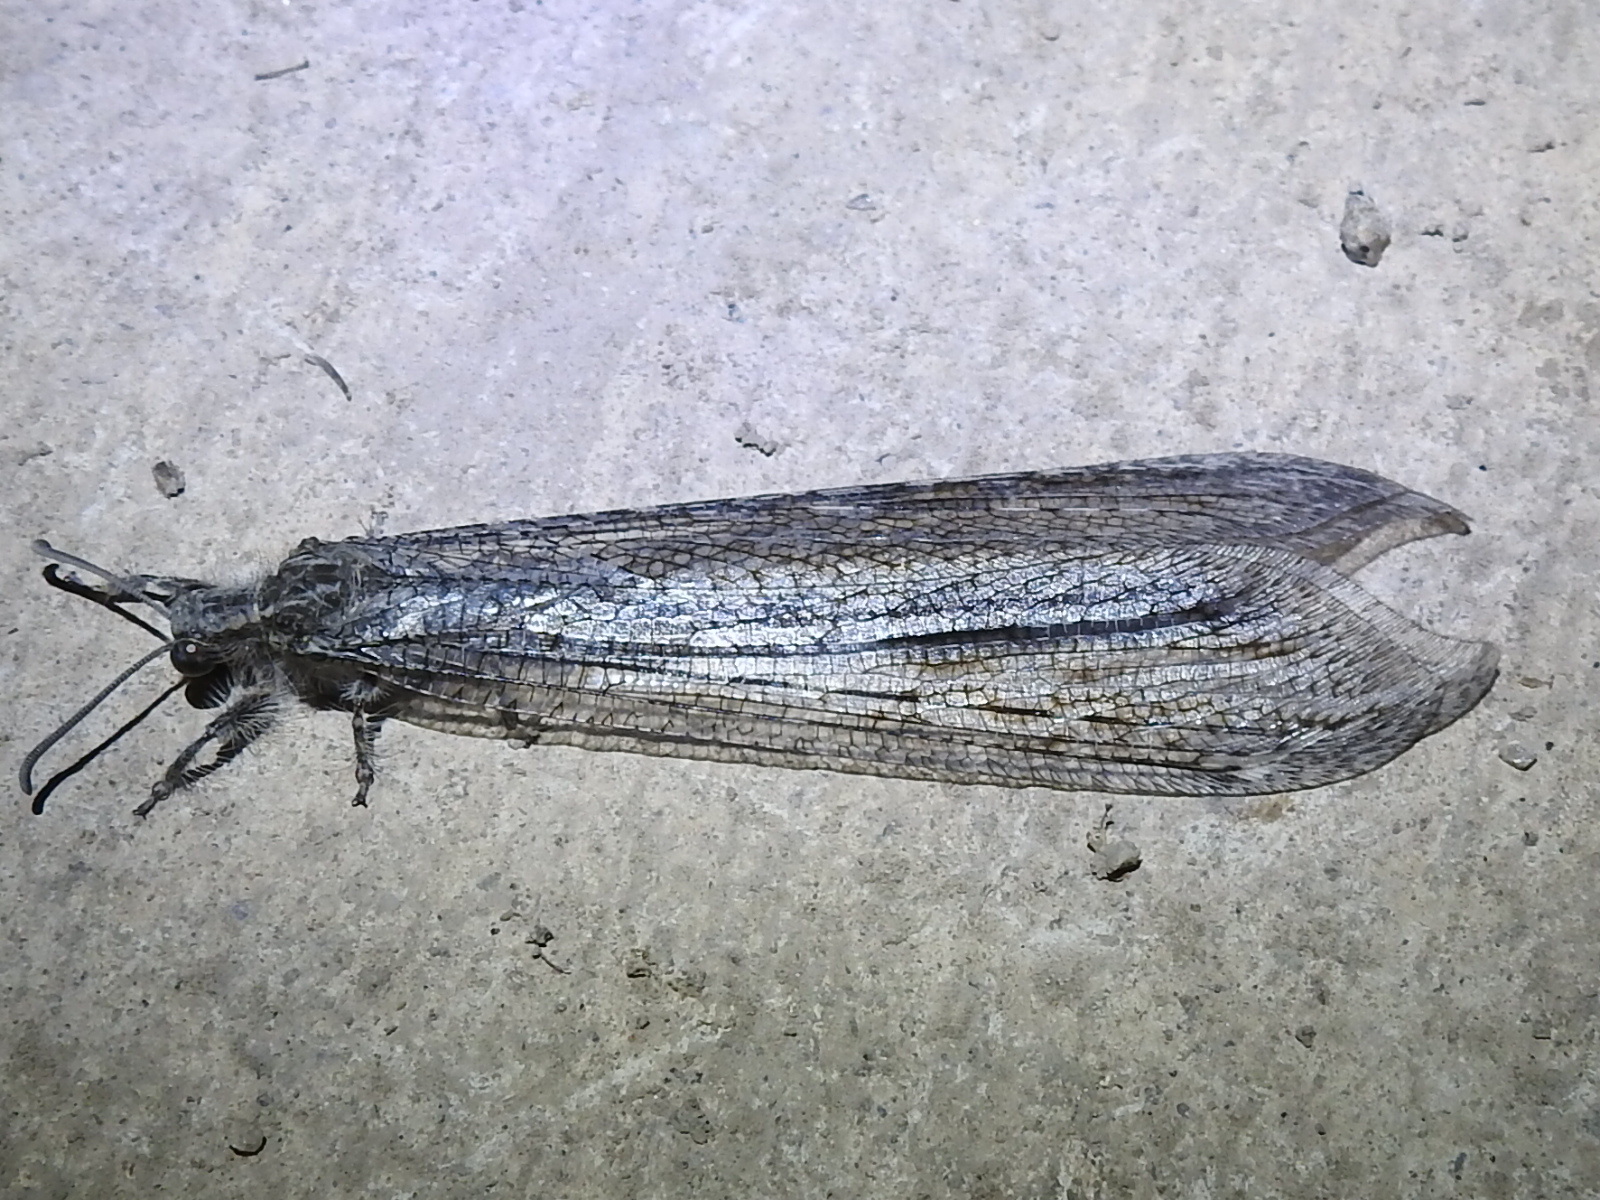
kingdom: Animalia
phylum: Arthropoda
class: Insecta
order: Neuroptera
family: Myrmeleontidae
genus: Vella
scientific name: Vella fallax
